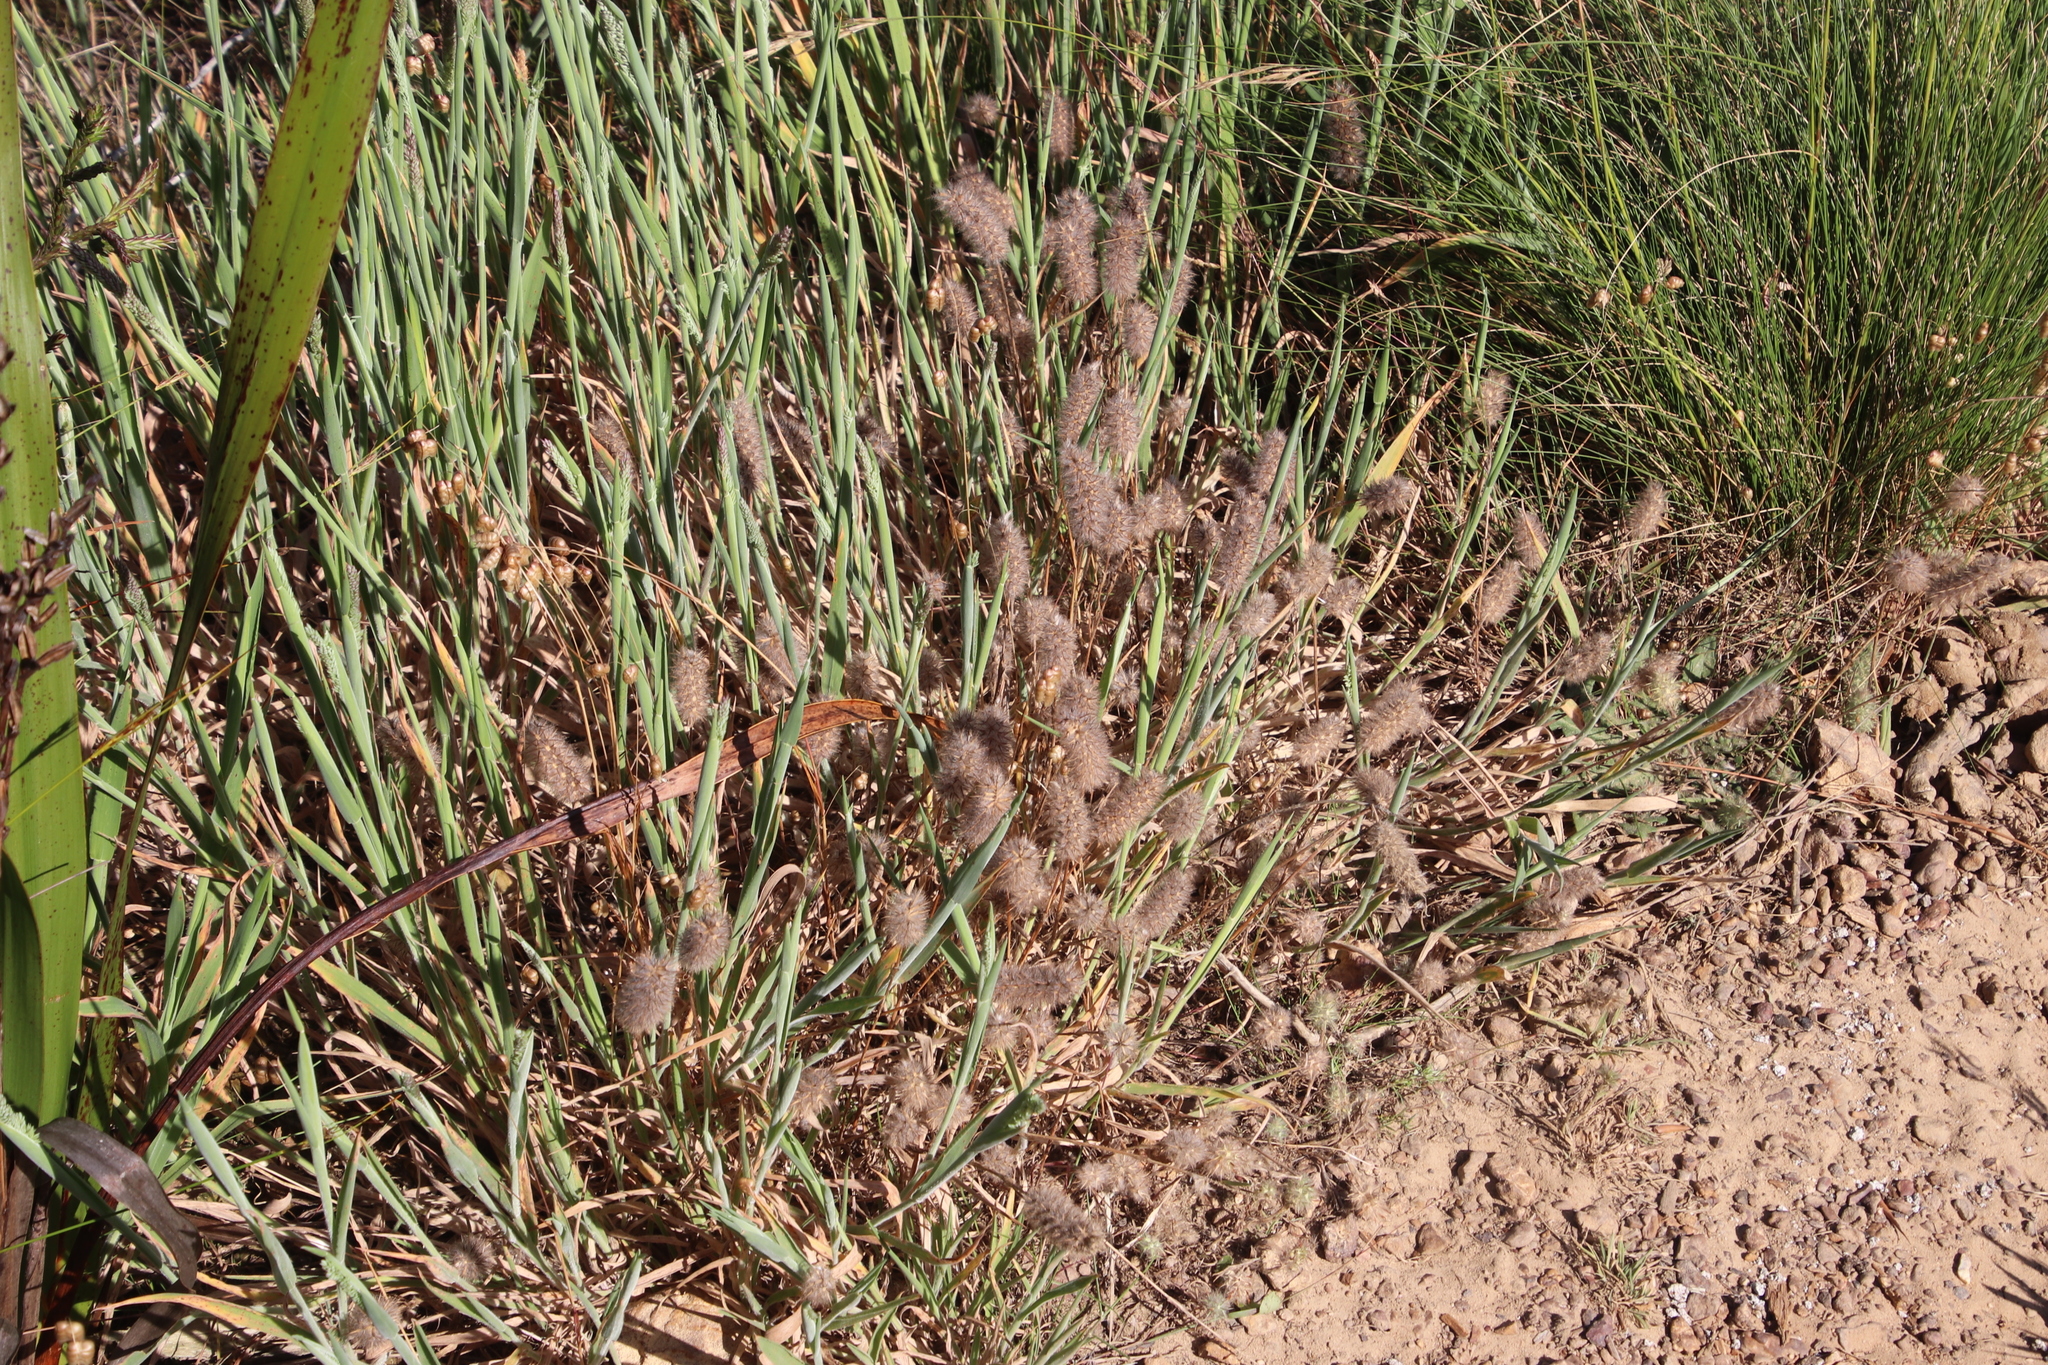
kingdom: Plantae
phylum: Tracheophyta
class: Magnoliopsida
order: Fabales
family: Fabaceae
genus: Trifolium
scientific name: Trifolium angustifolium
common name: Narrow clover
